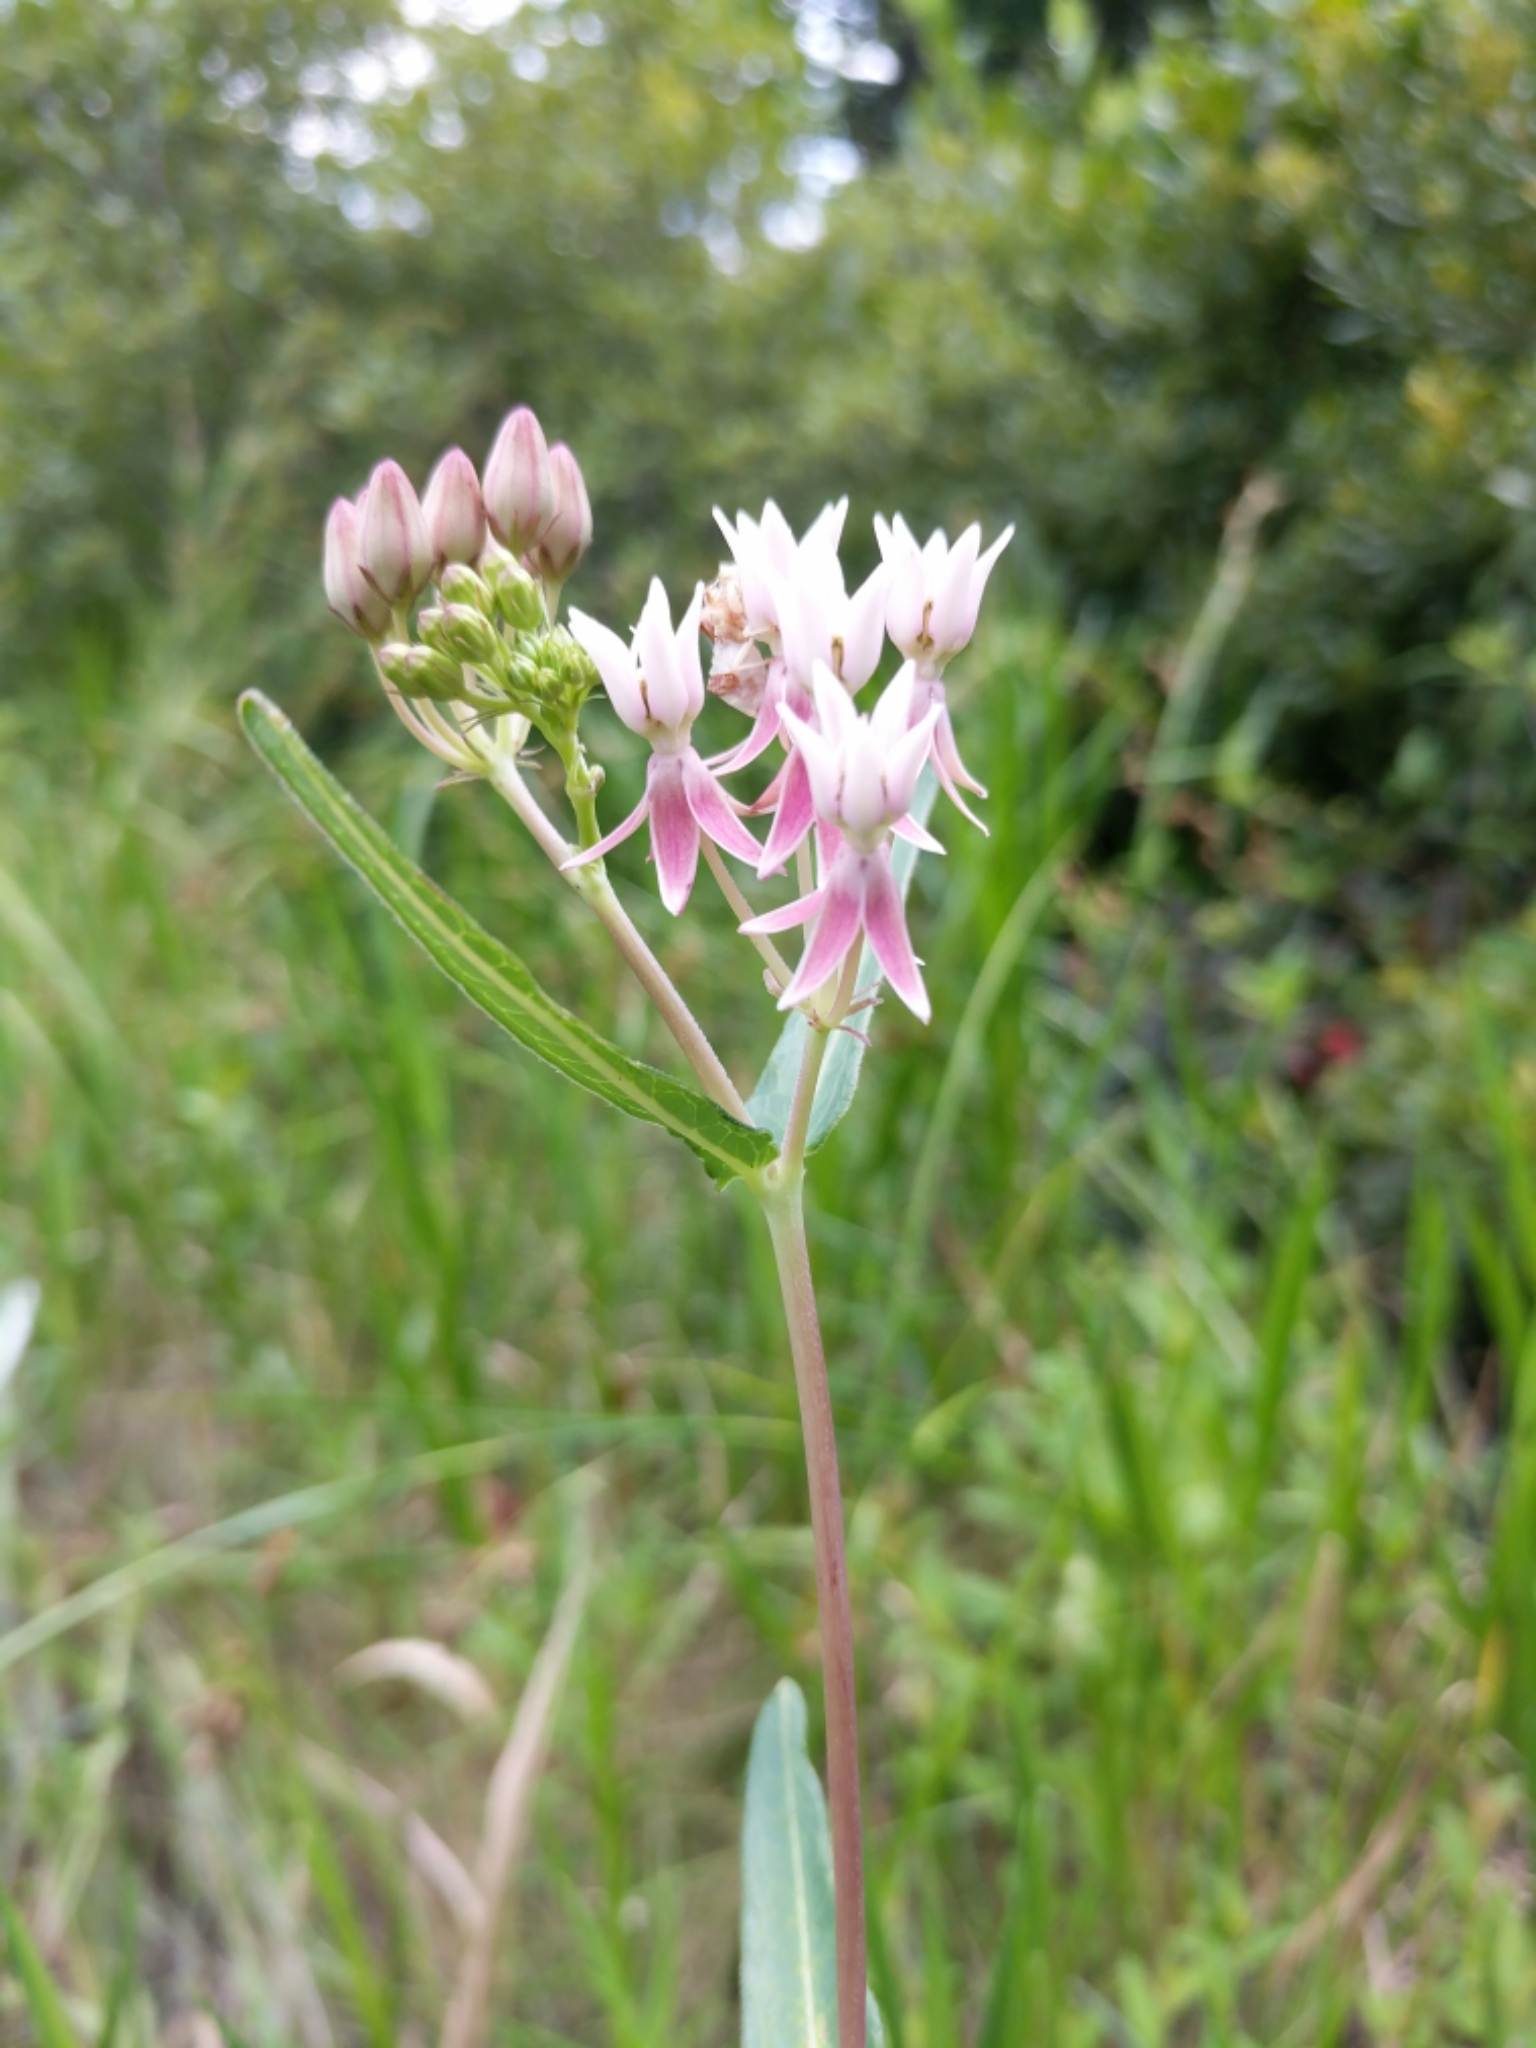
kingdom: Plantae
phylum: Tracheophyta
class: Magnoliopsida
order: Gentianales
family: Apocynaceae
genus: Asclepias
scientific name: Asclepias rubra
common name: Red milkweed
